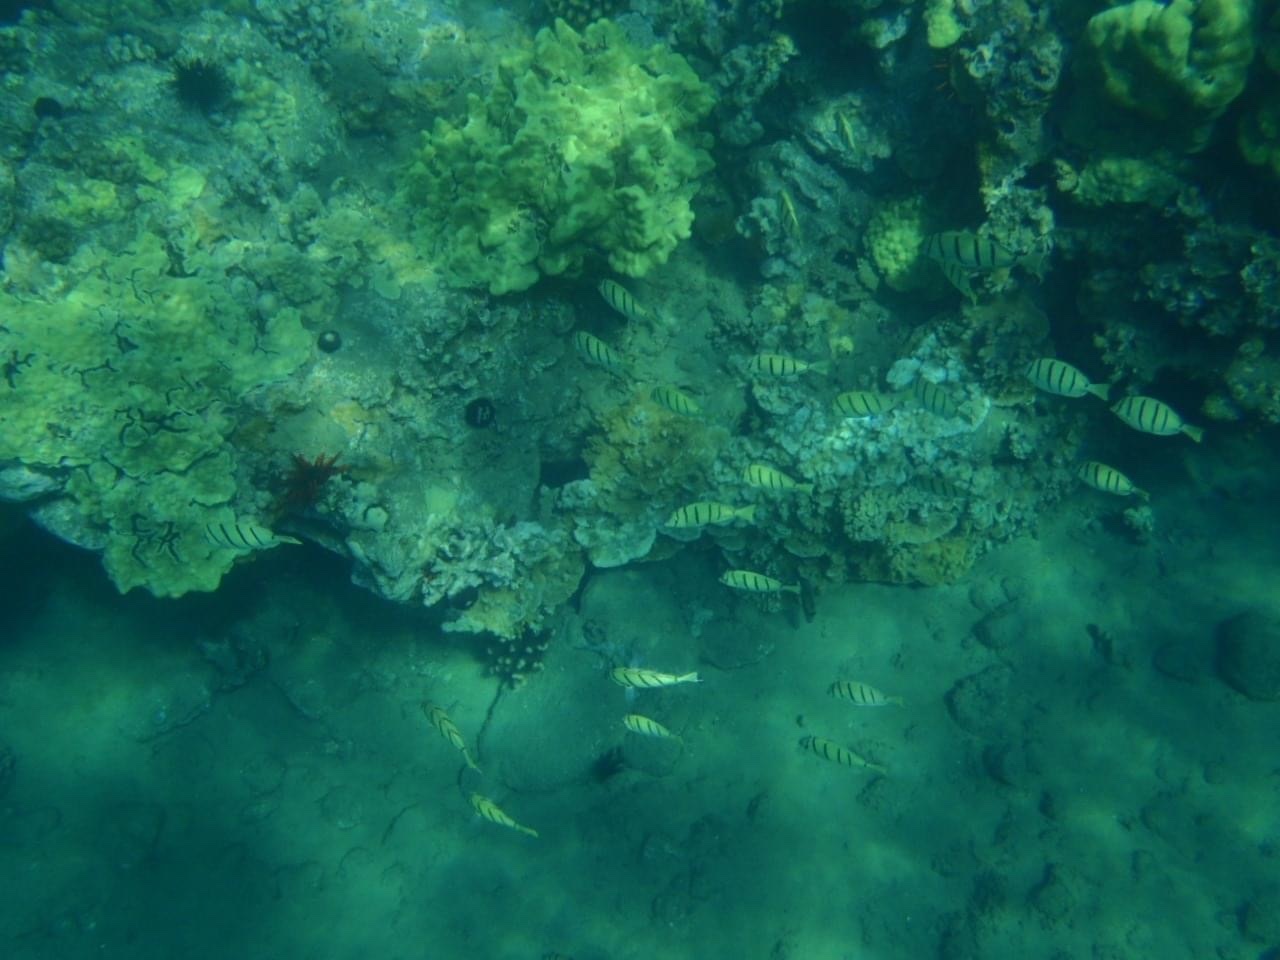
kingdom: Animalia
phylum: Chordata
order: Perciformes
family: Acanthuridae
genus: Acanthurus
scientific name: Acanthurus triostegus
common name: Convict surgeonfish
